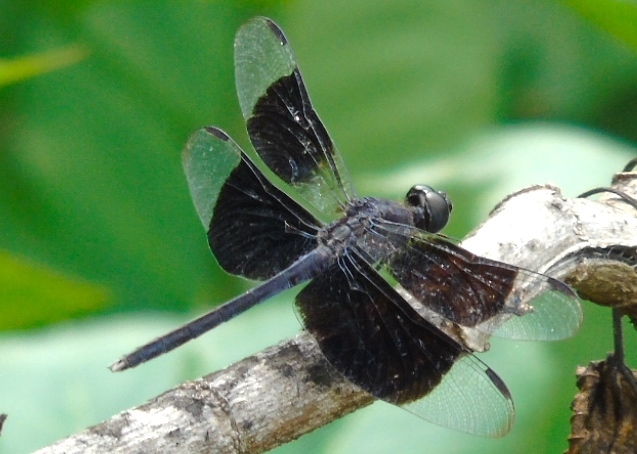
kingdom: Animalia
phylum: Arthropoda
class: Insecta
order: Odonata
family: Libellulidae
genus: Erythrodiplax
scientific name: Erythrodiplax funerea
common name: Black-winged dragonlet
